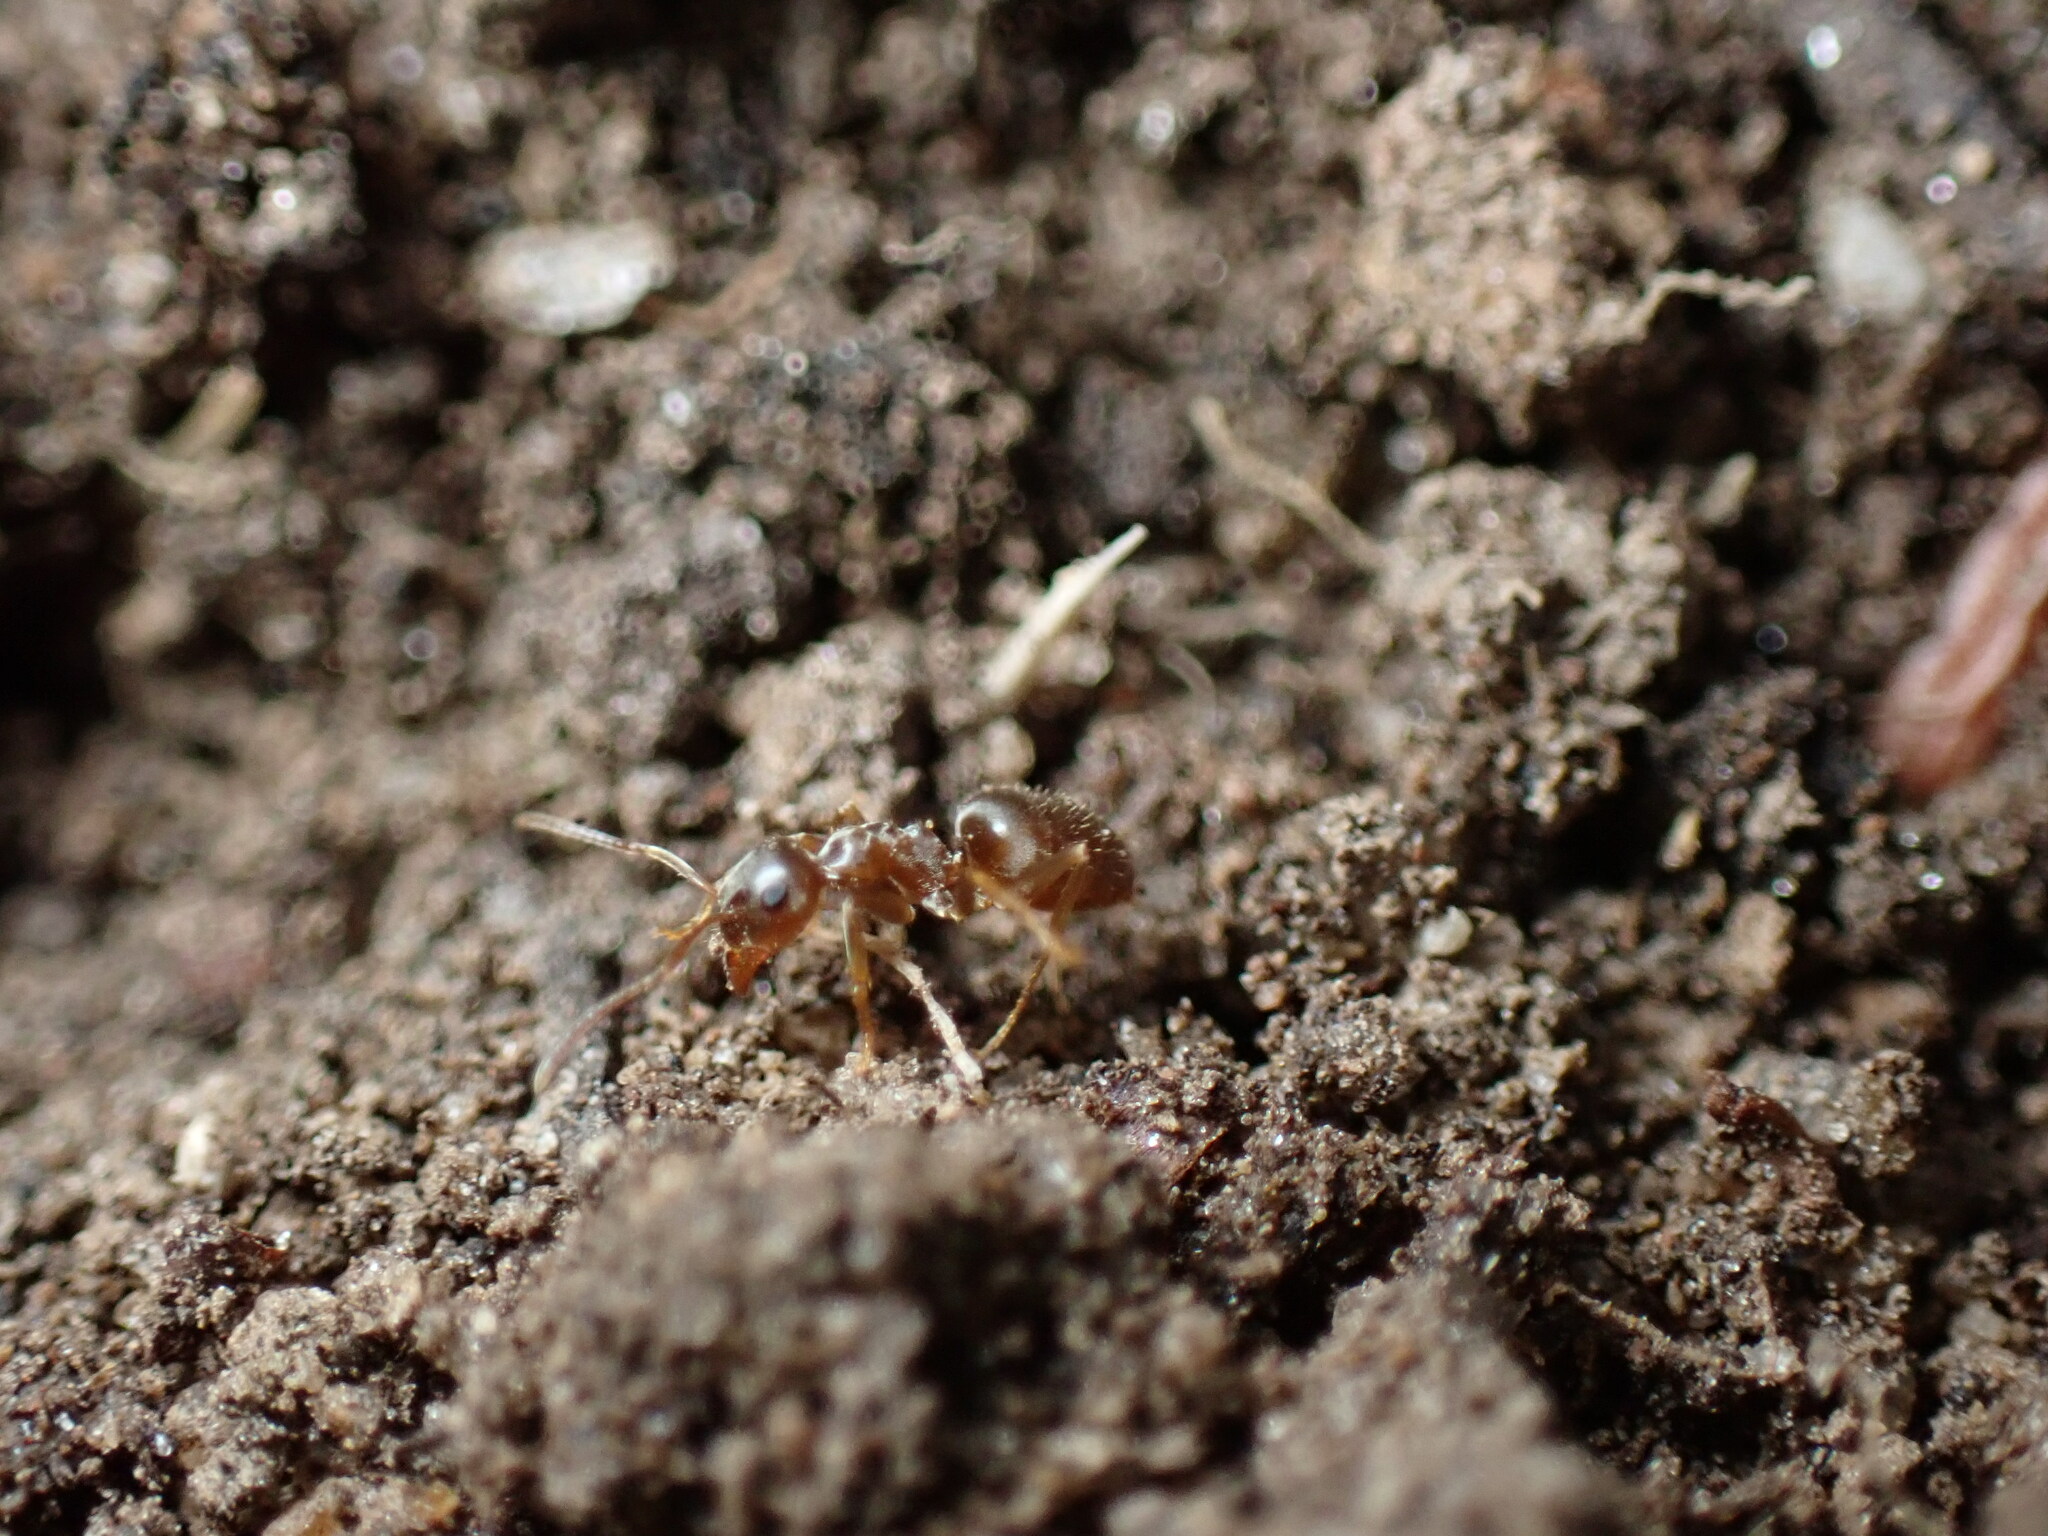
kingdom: Animalia
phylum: Arthropoda
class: Insecta
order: Hymenoptera
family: Formicidae
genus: Lasius
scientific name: Lasius neoniger
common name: Turfgrass ant
